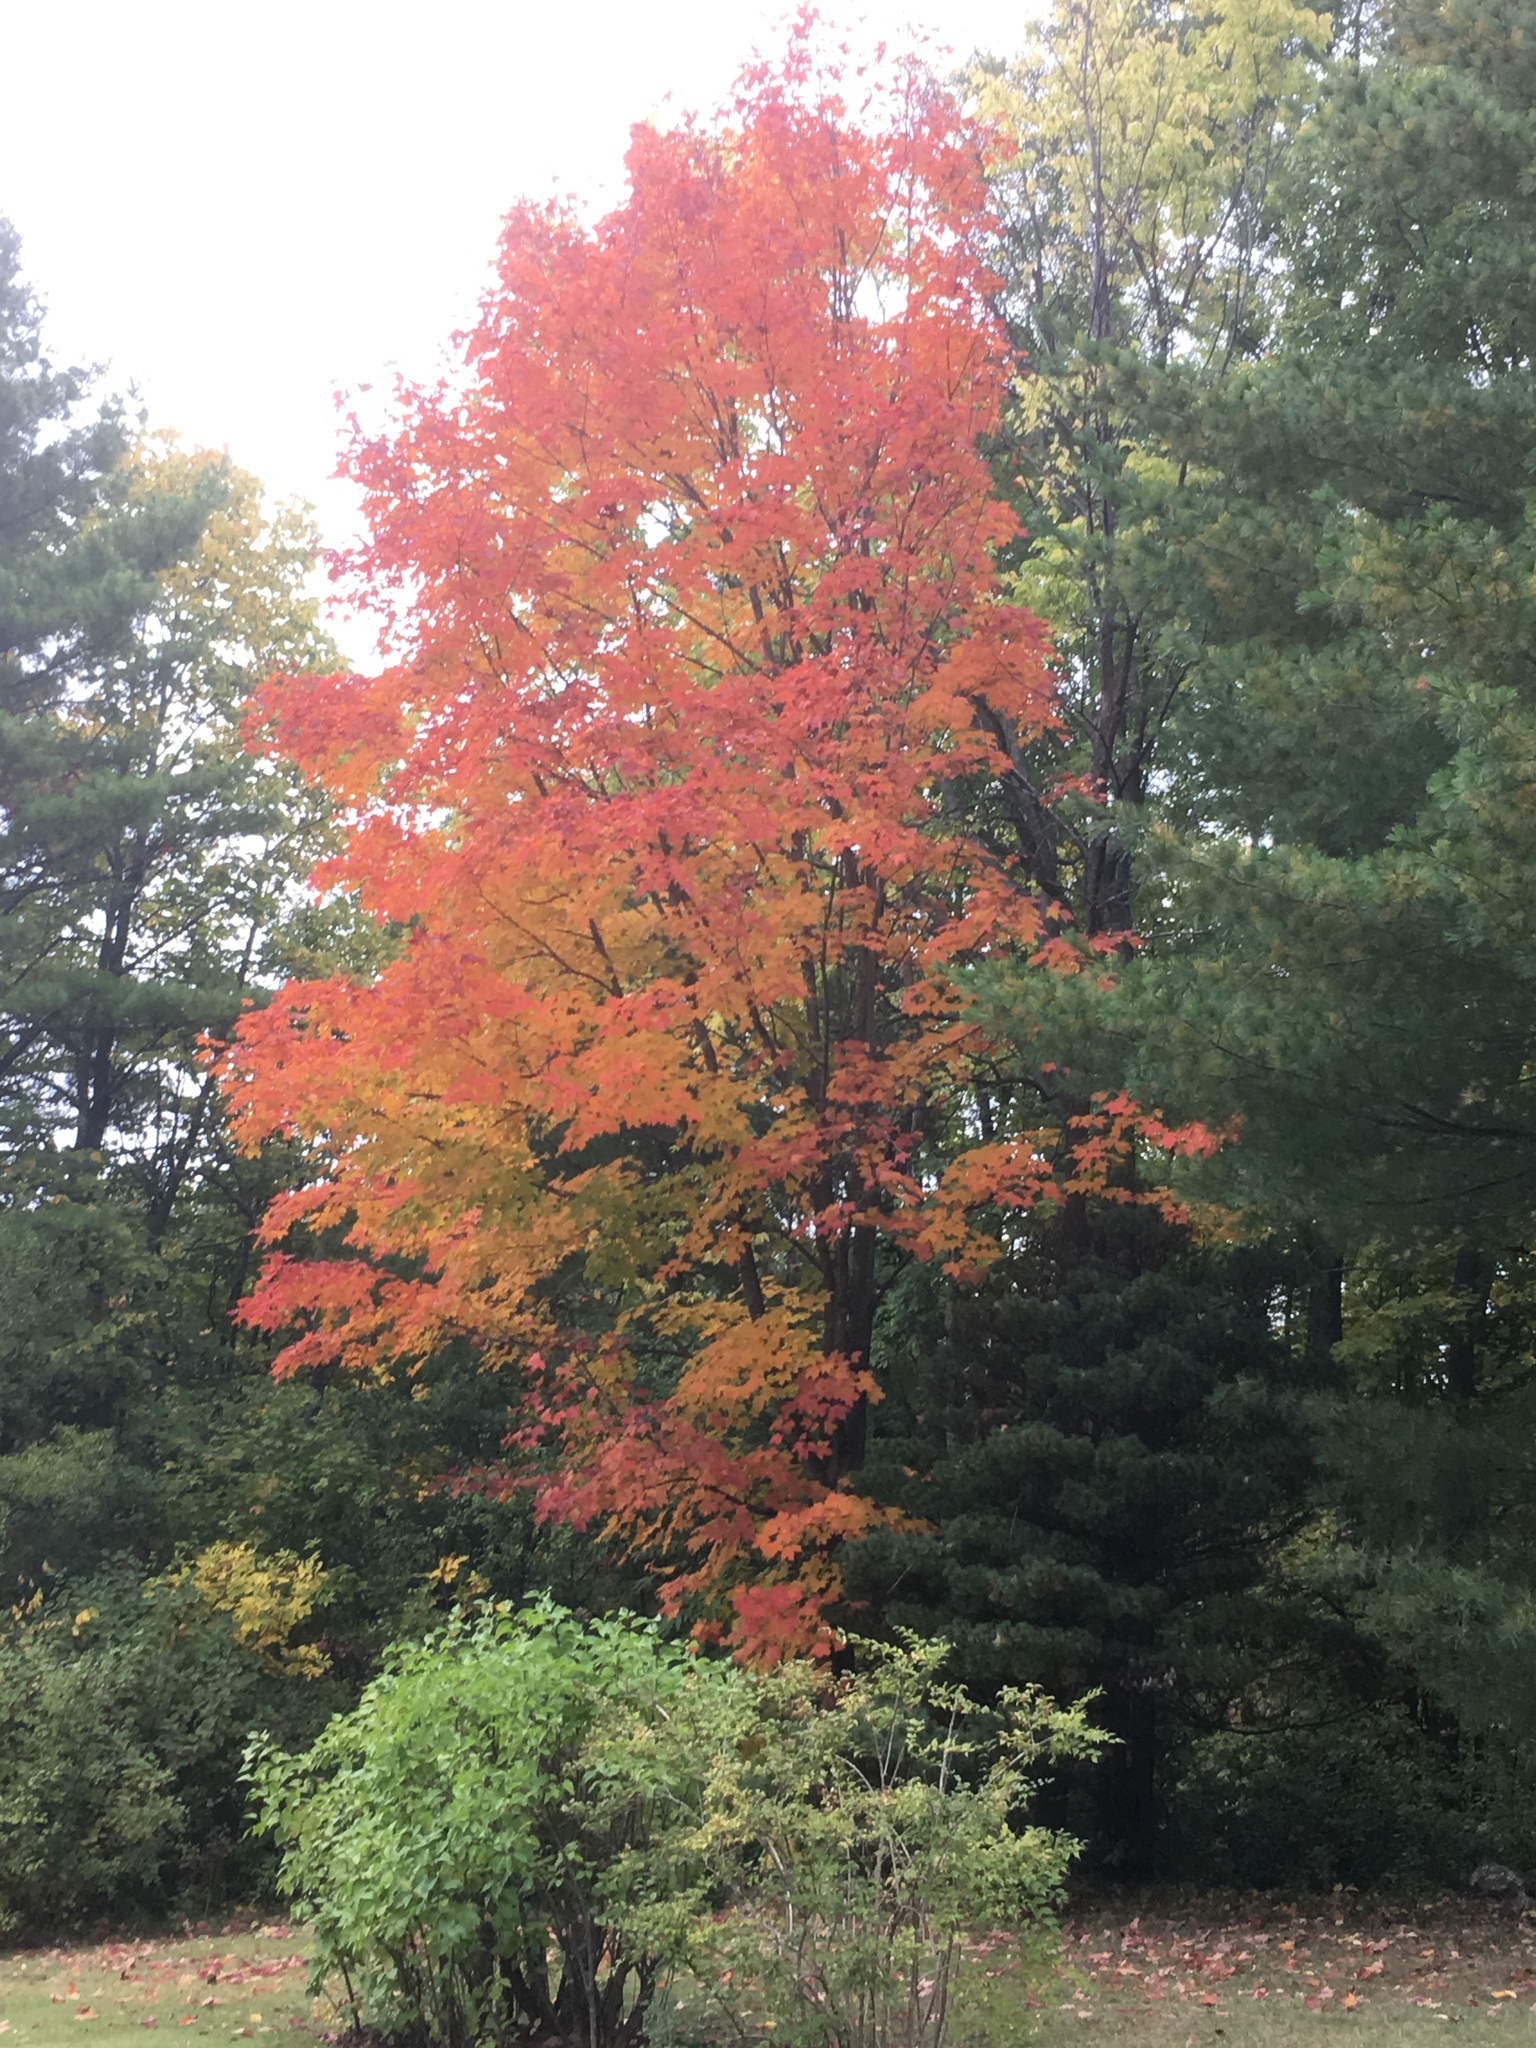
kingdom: Plantae
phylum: Tracheophyta
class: Magnoliopsida
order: Sapindales
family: Sapindaceae
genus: Acer
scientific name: Acer saccharum
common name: Sugar maple
